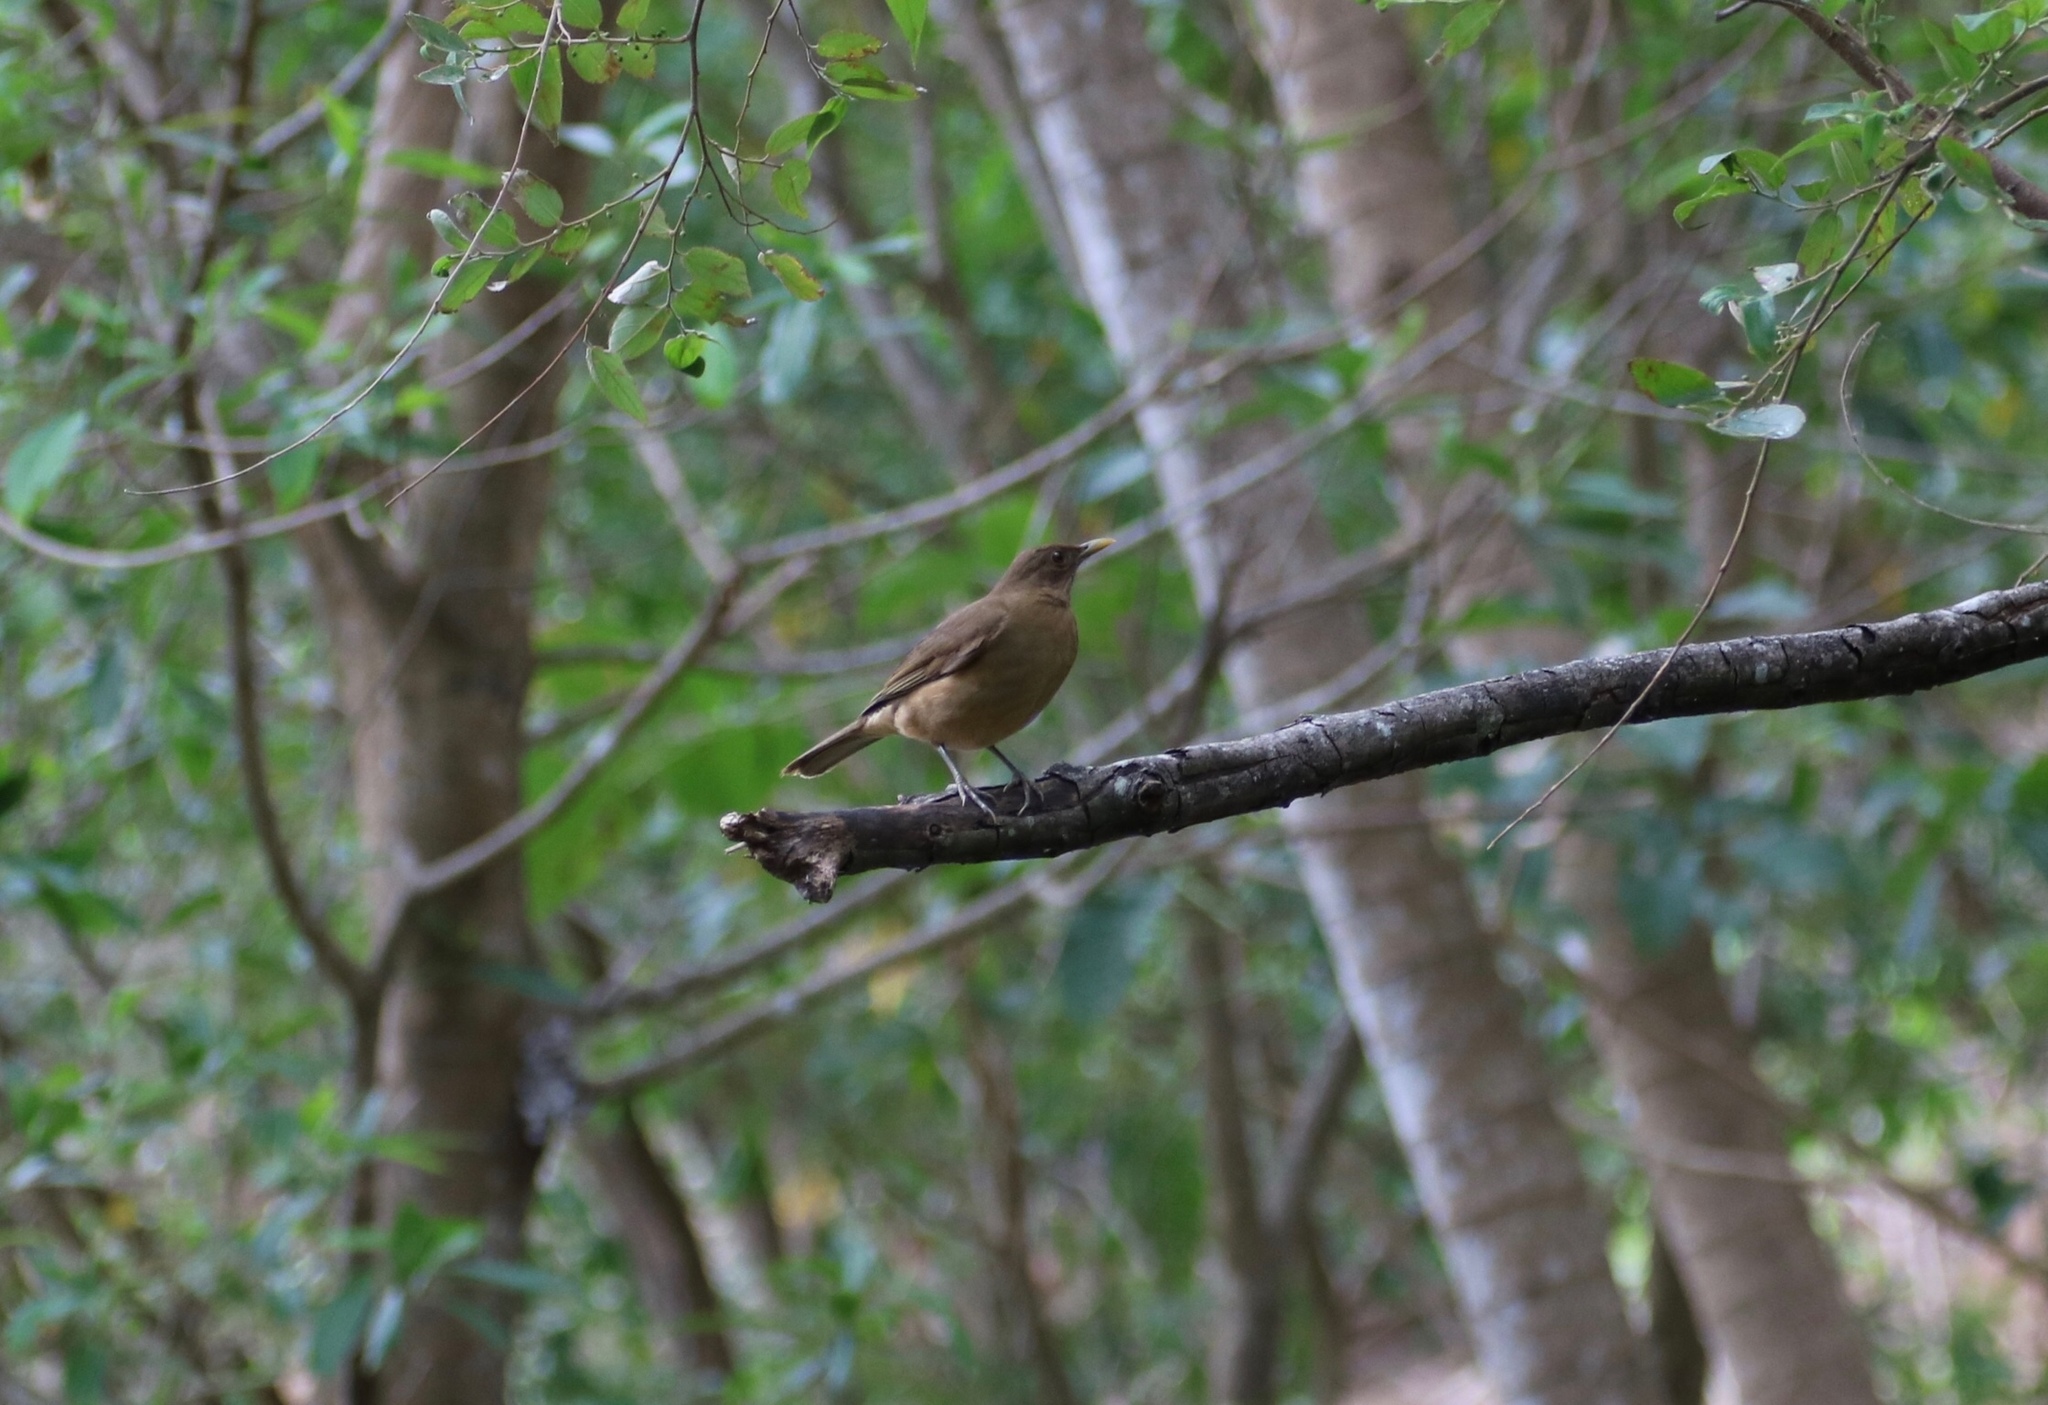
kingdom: Animalia
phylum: Chordata
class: Aves
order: Passeriformes
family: Turdidae
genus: Turdus
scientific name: Turdus grayi
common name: Clay-colored thrush
